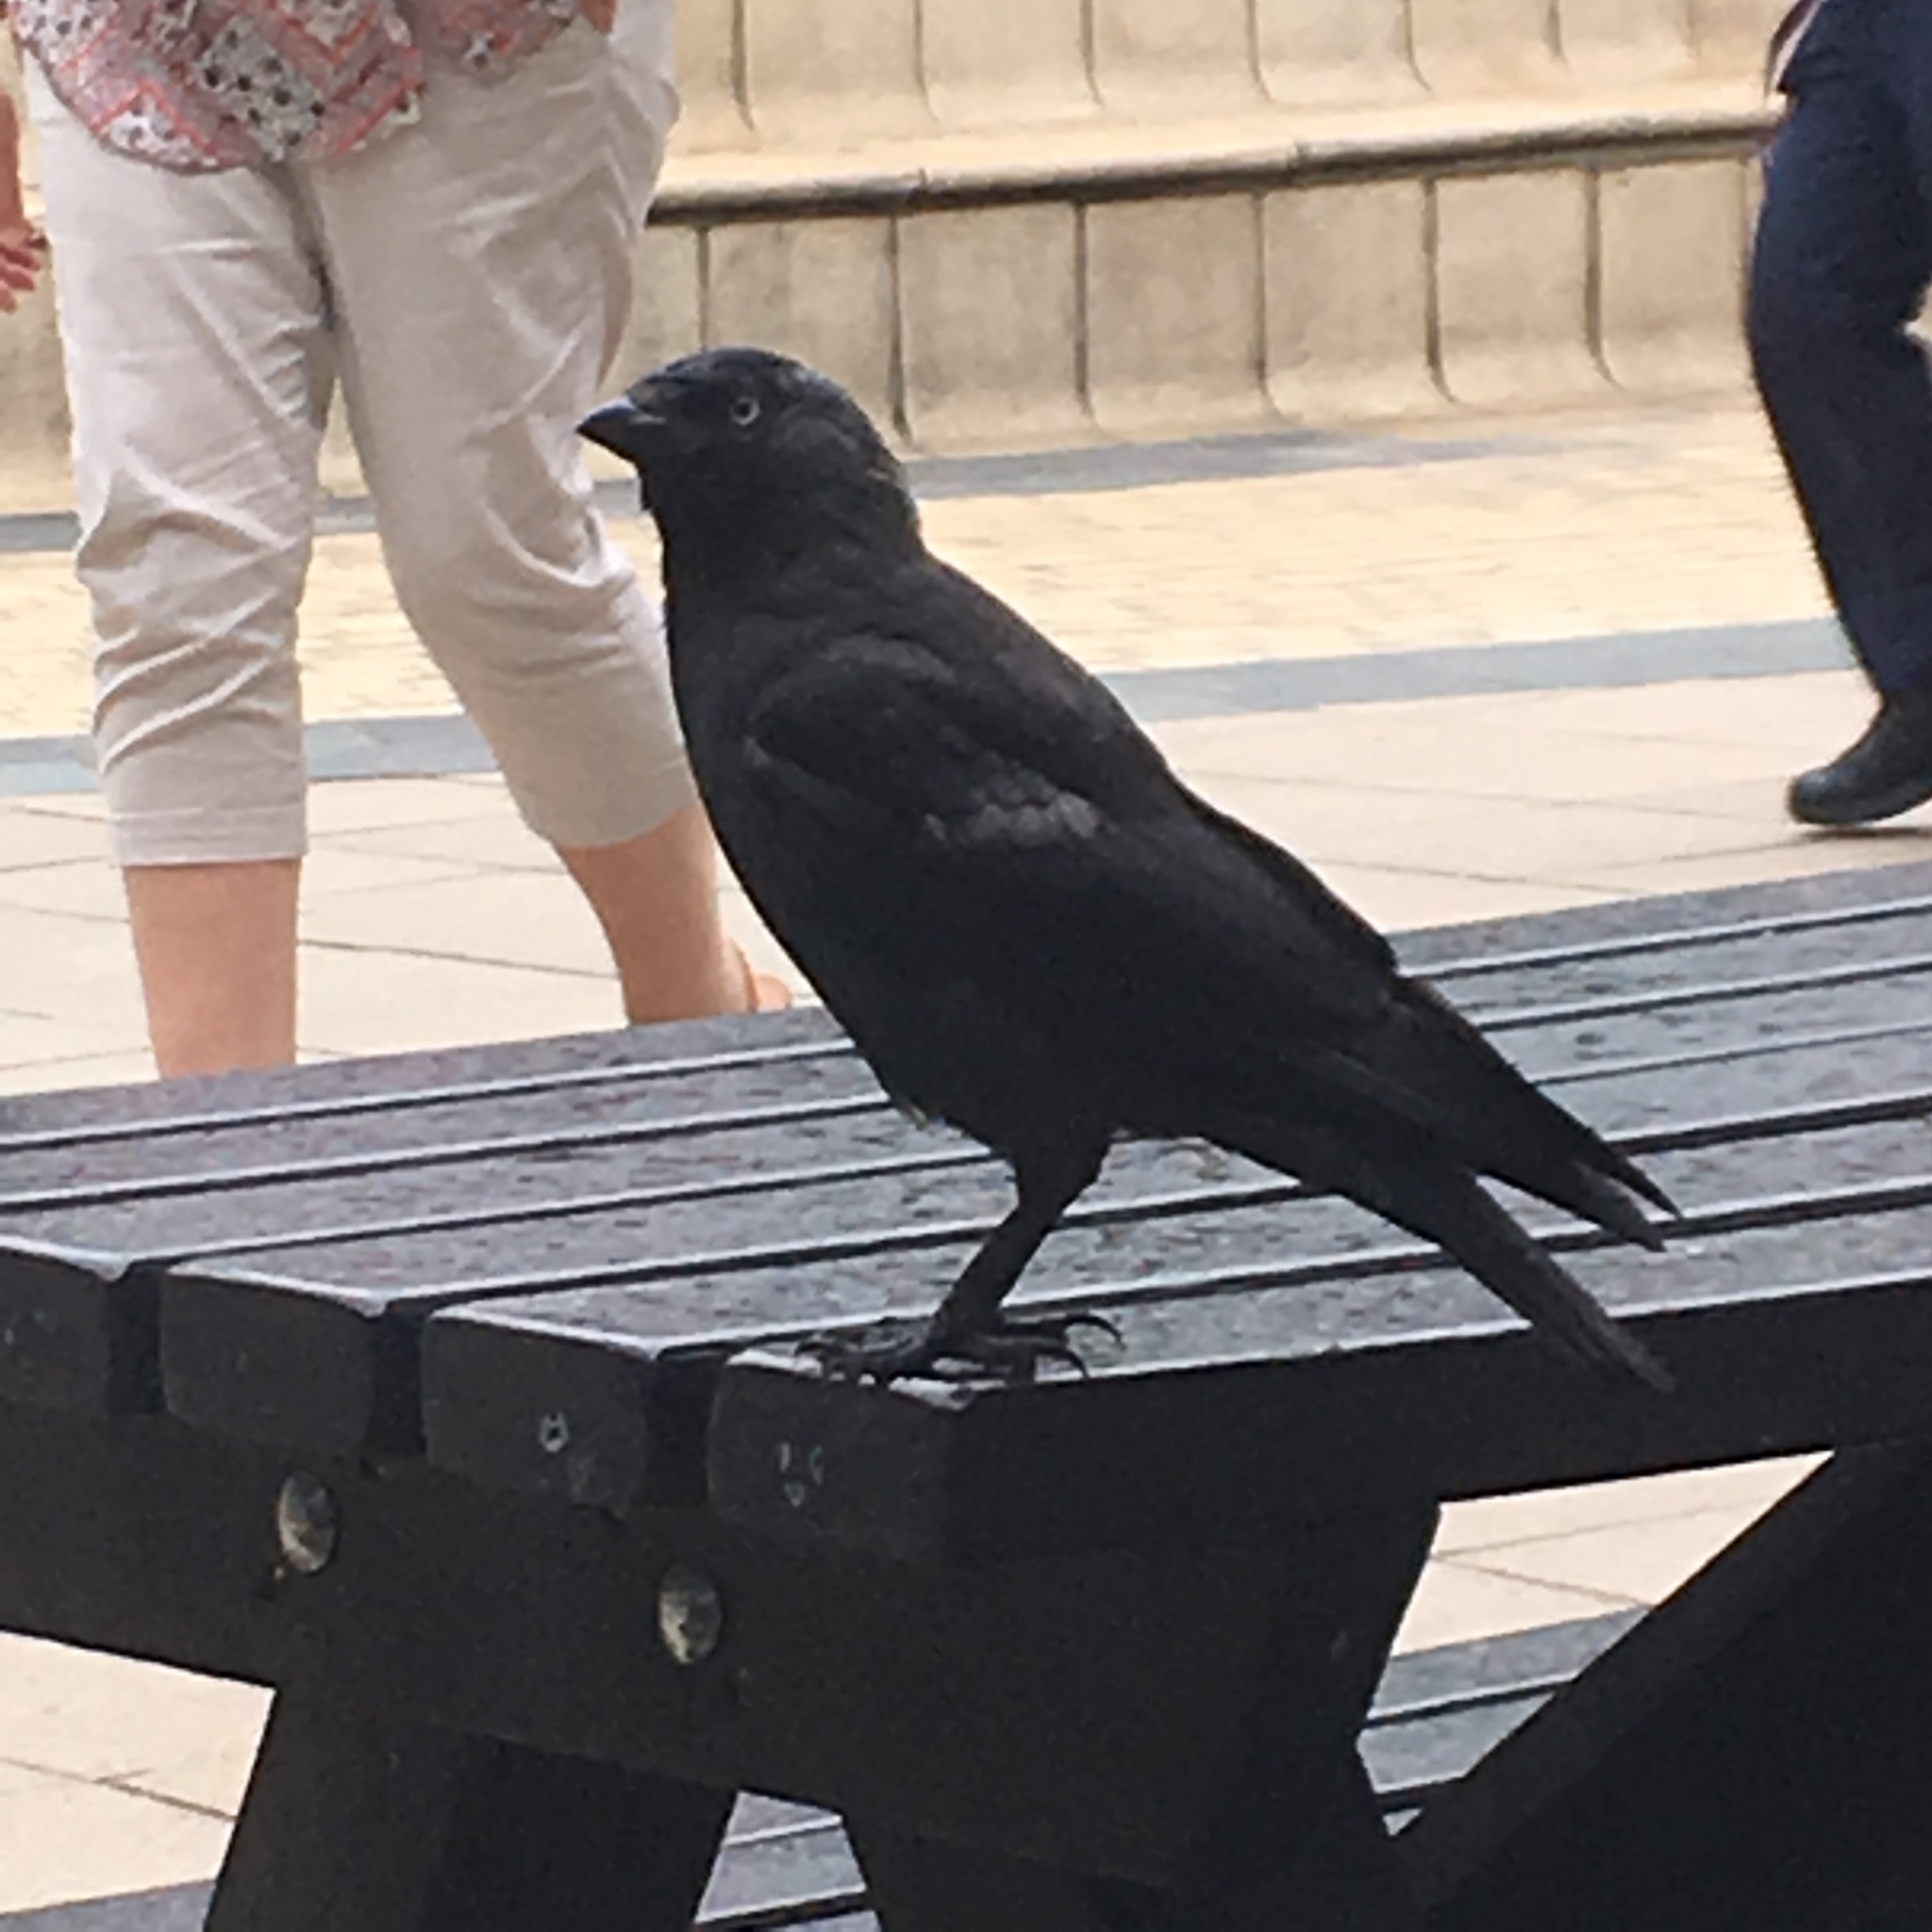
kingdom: Animalia
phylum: Chordata
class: Aves
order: Passeriformes
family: Corvidae
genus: Coloeus
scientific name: Coloeus monedula
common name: Western jackdaw
